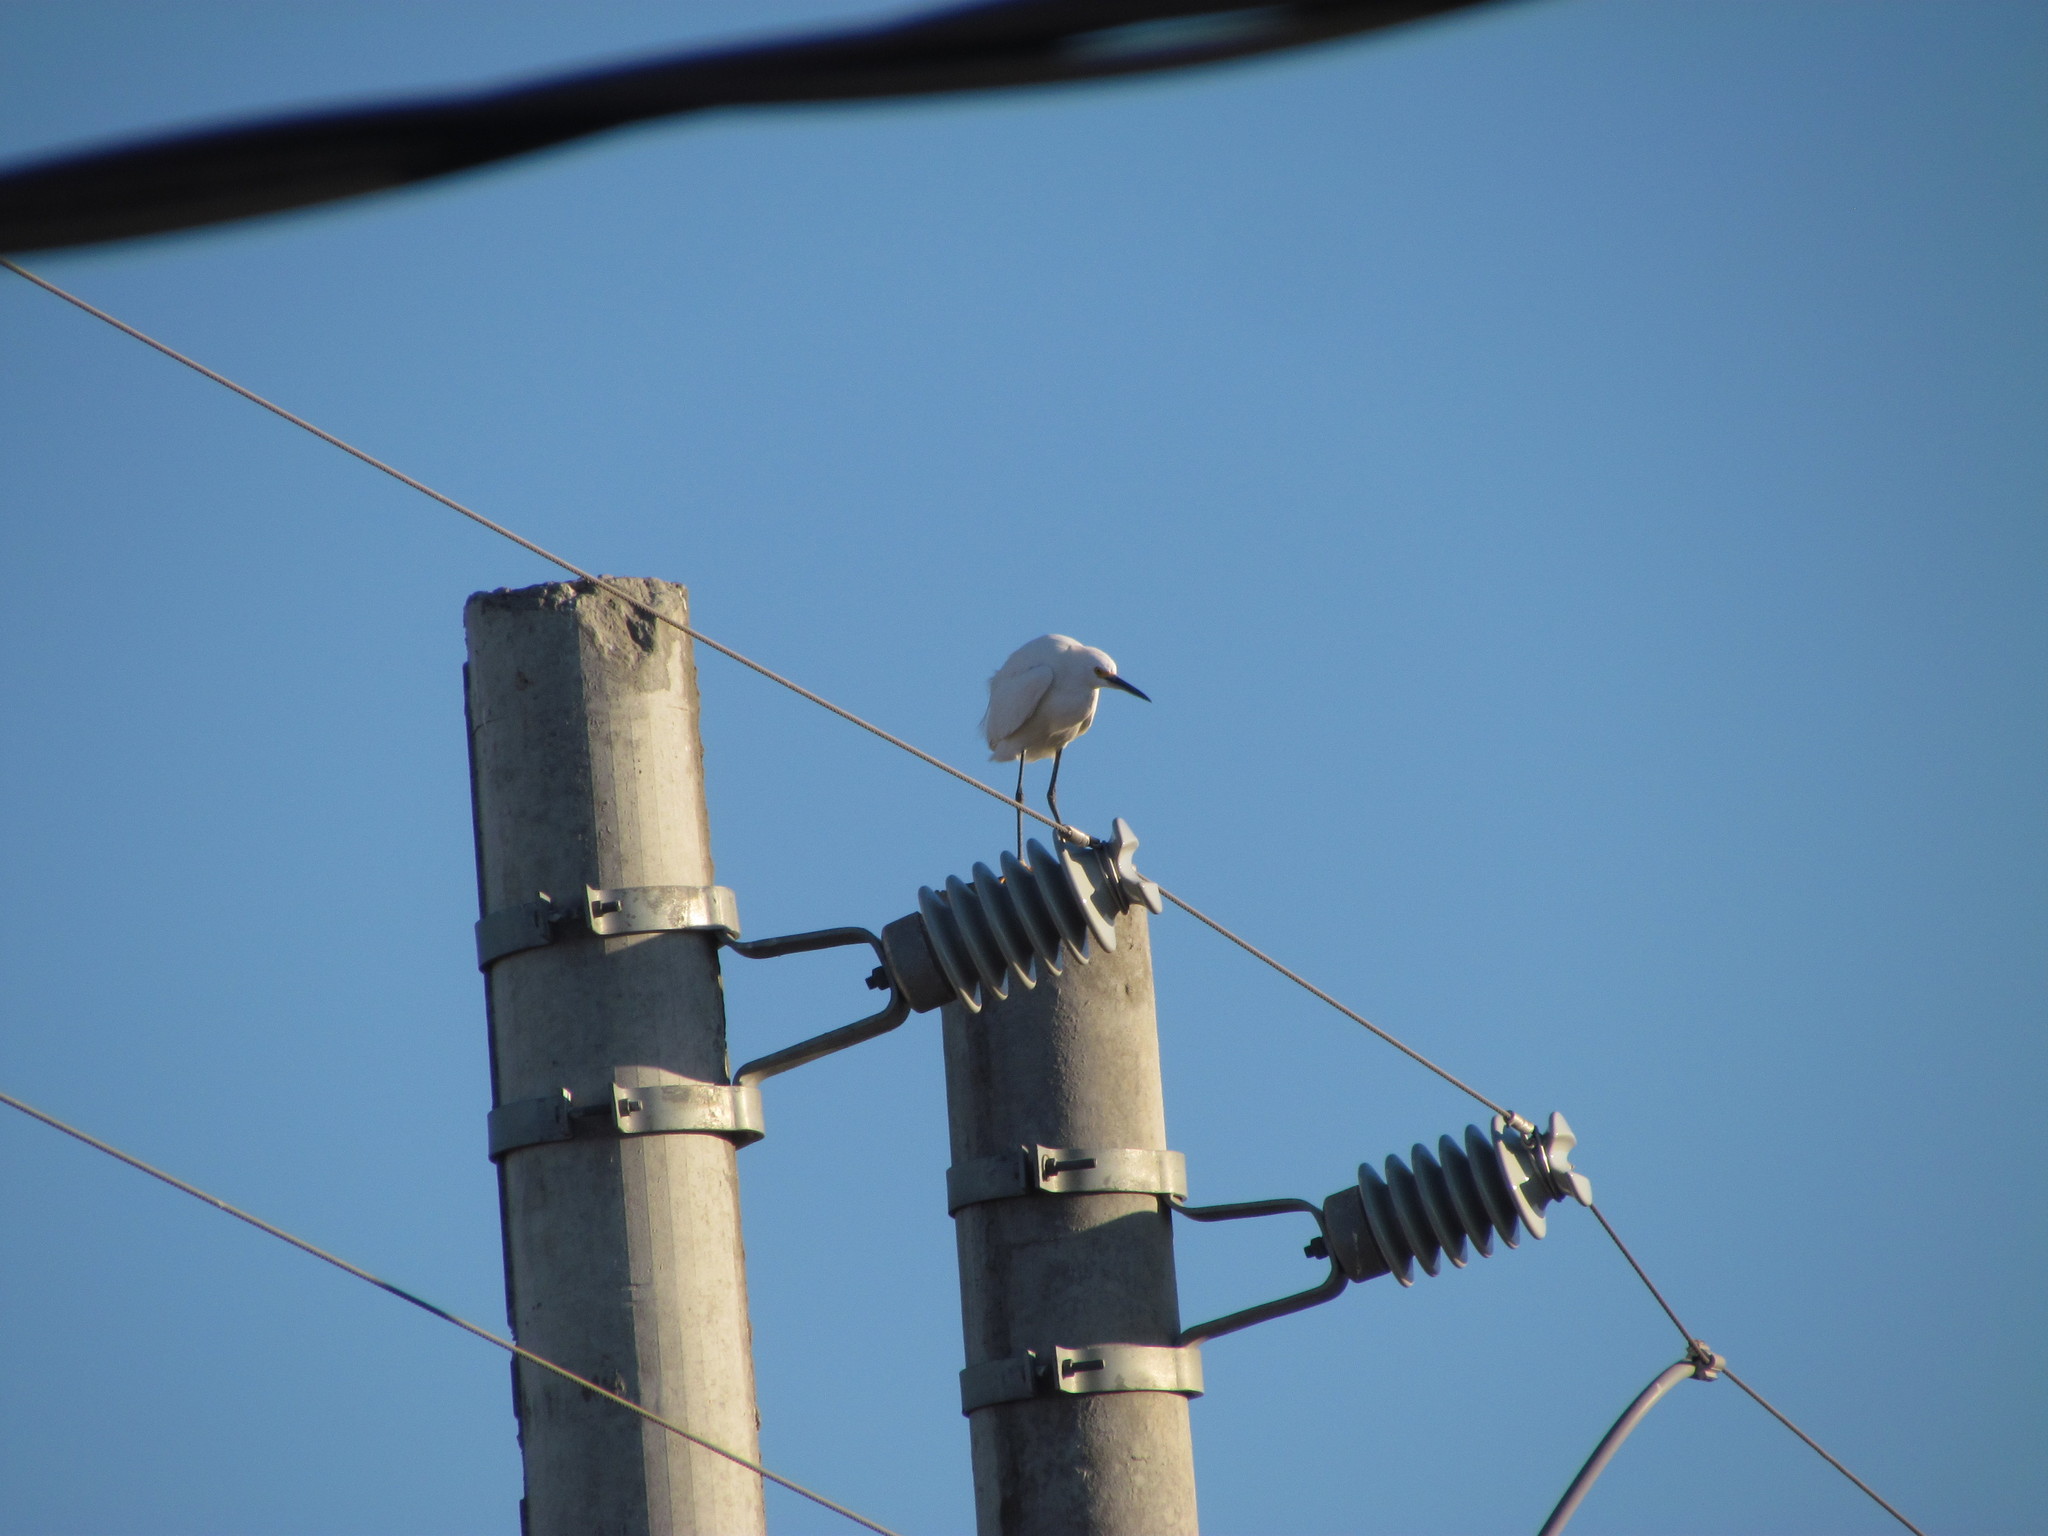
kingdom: Animalia
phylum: Chordata
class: Aves
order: Pelecaniformes
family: Ardeidae
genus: Egretta
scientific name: Egretta thula
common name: Snowy egret
